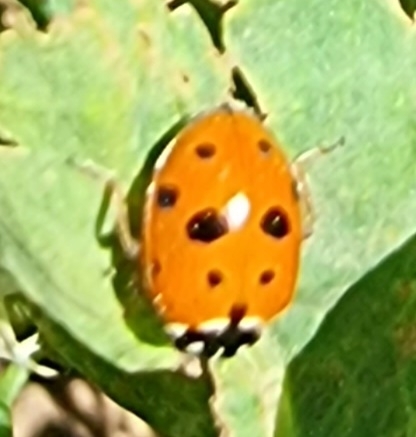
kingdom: Animalia
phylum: Arthropoda
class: Insecta
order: Coleoptera
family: Coccinellidae
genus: Hippodamia
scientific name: Hippodamia variegata
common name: Ladybird beetle
